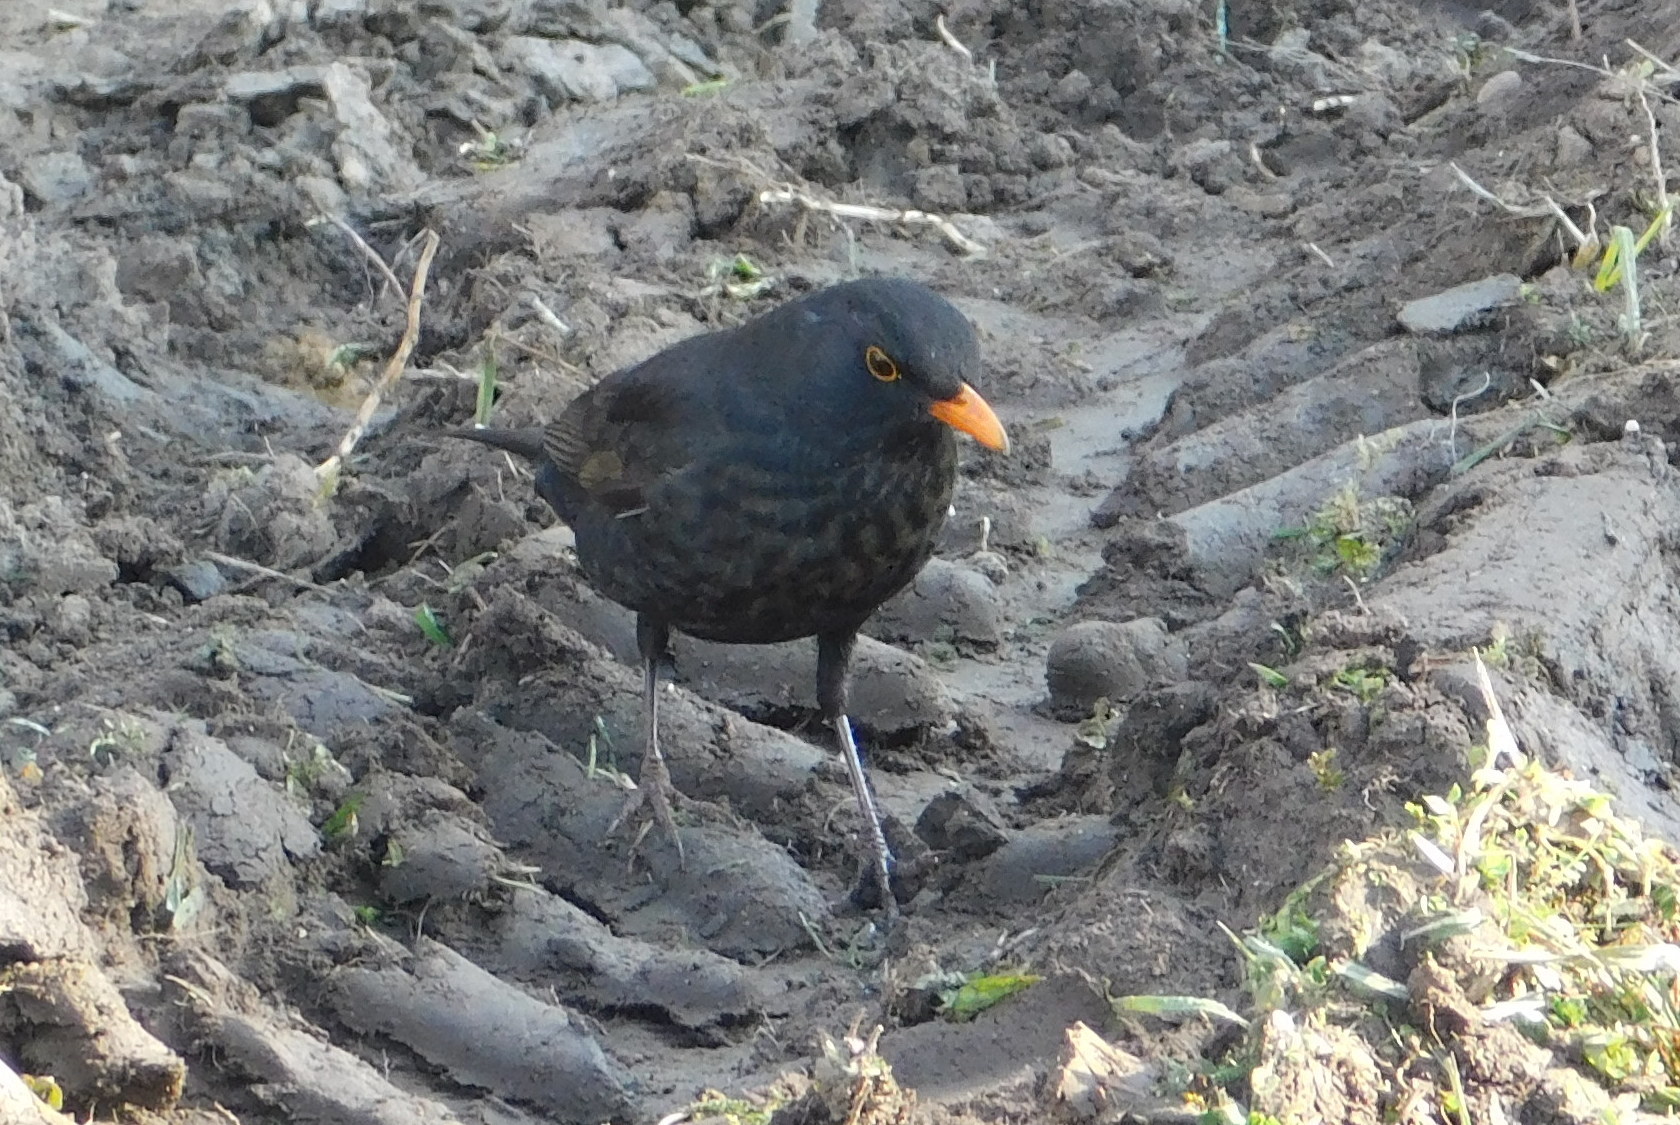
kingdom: Animalia
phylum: Chordata
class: Aves
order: Passeriformes
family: Turdidae
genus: Turdus
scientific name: Turdus merula
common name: Common blackbird
